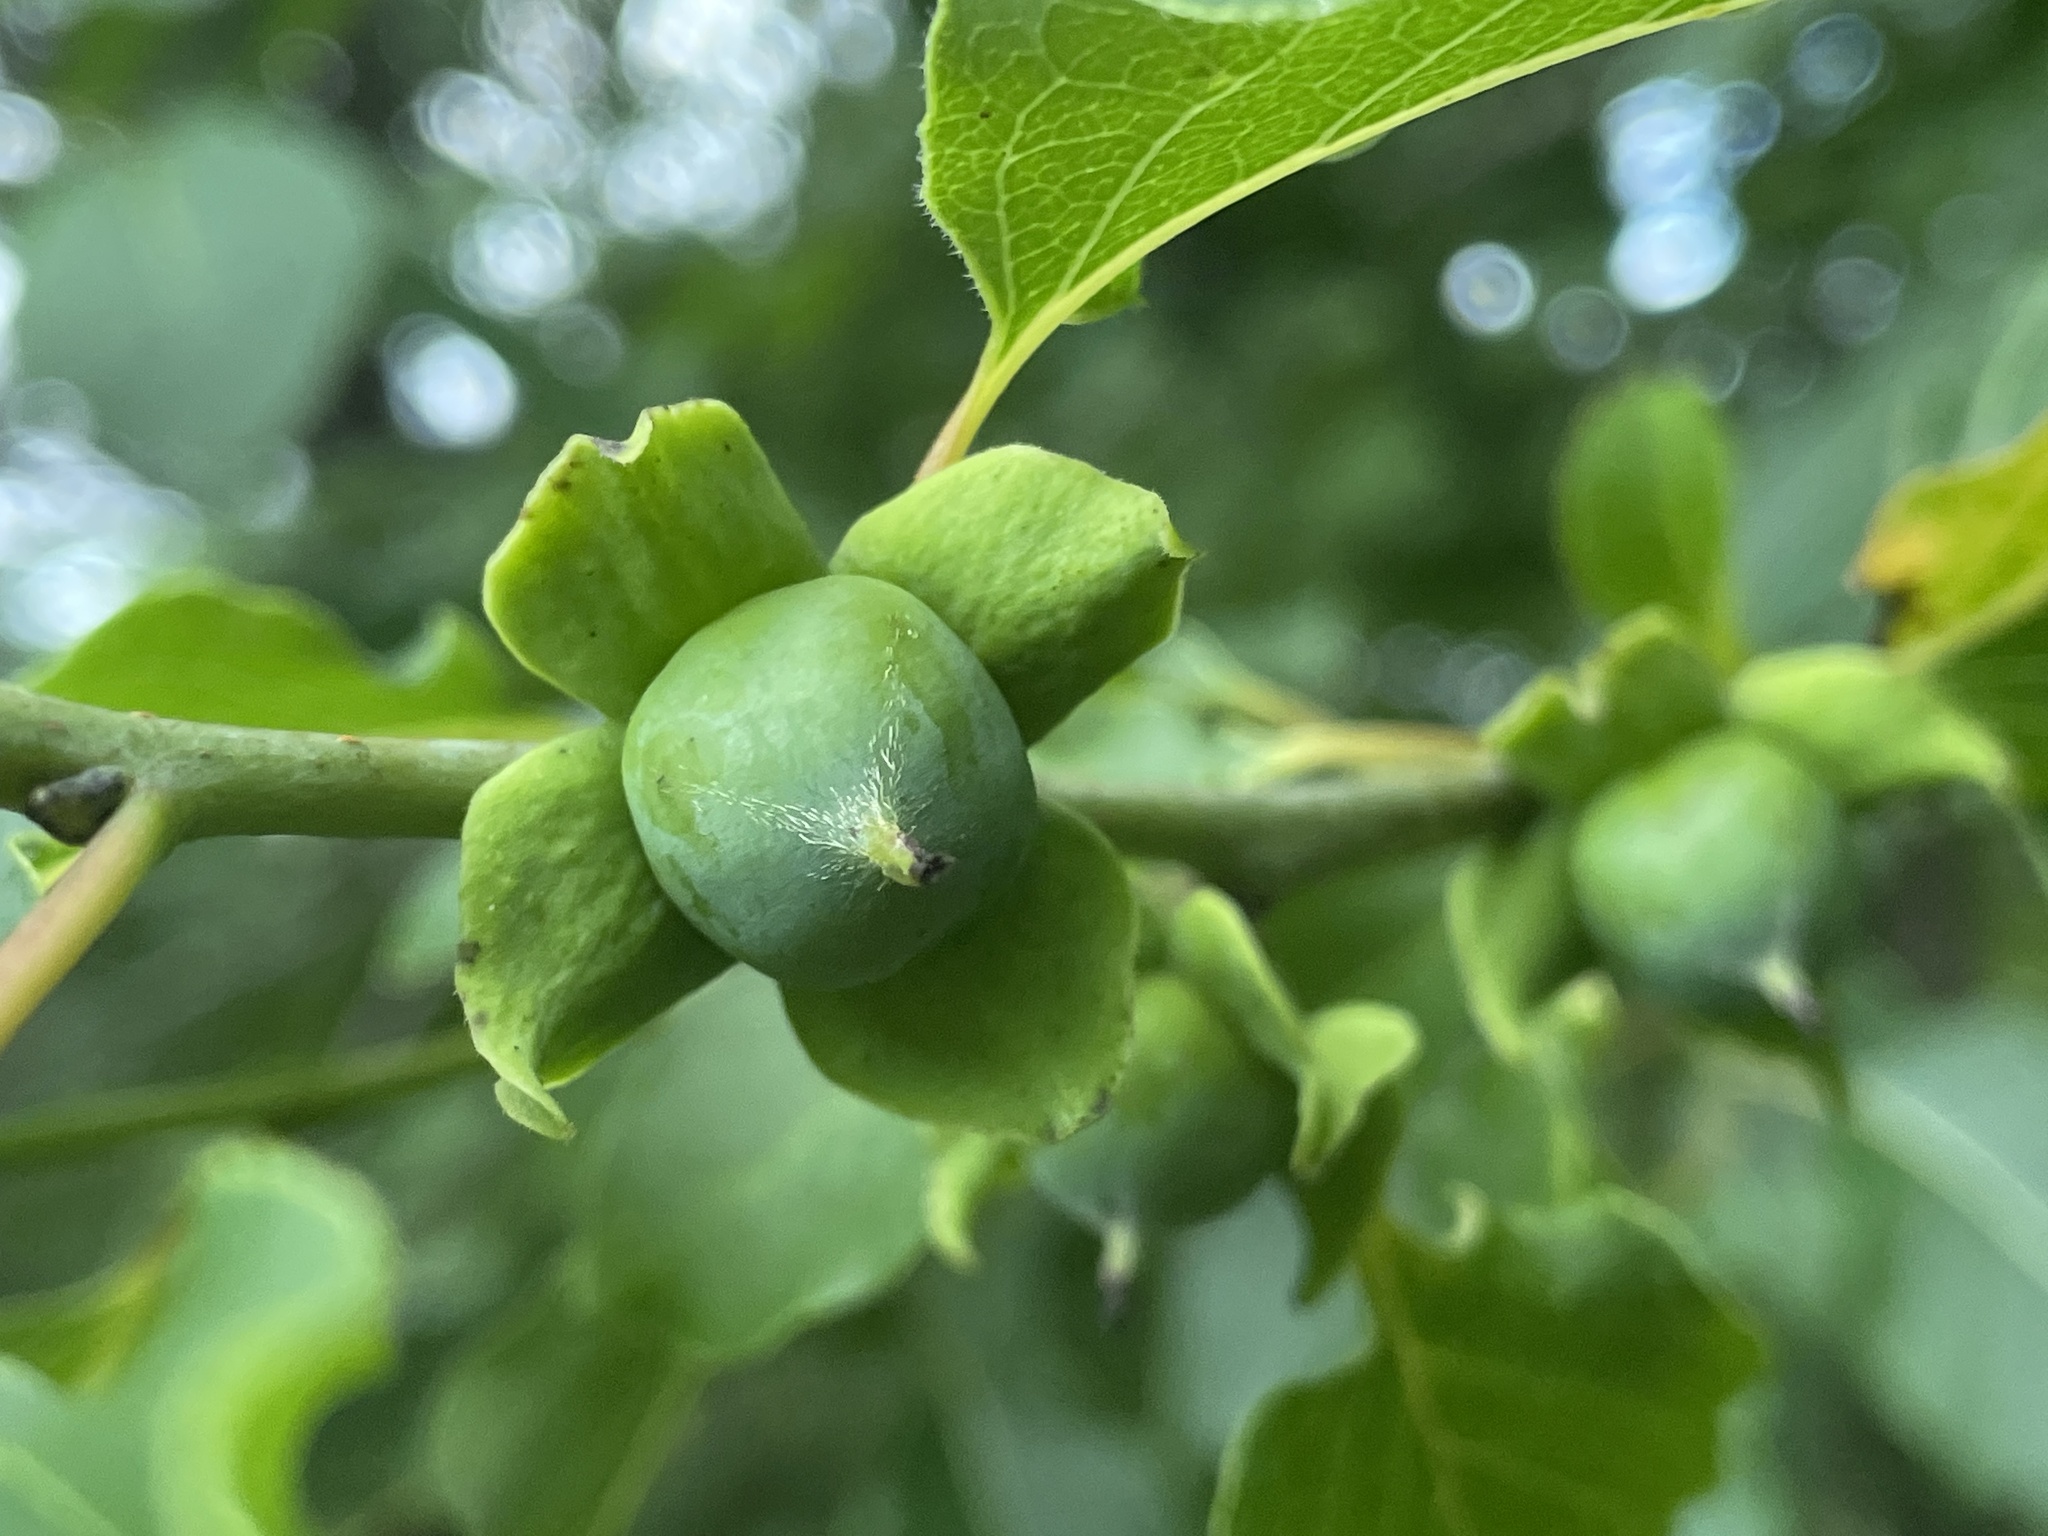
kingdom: Plantae
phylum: Tracheophyta
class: Magnoliopsida
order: Ericales
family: Ebenaceae
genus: Diospyros
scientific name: Diospyros virginiana
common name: Persimmon
